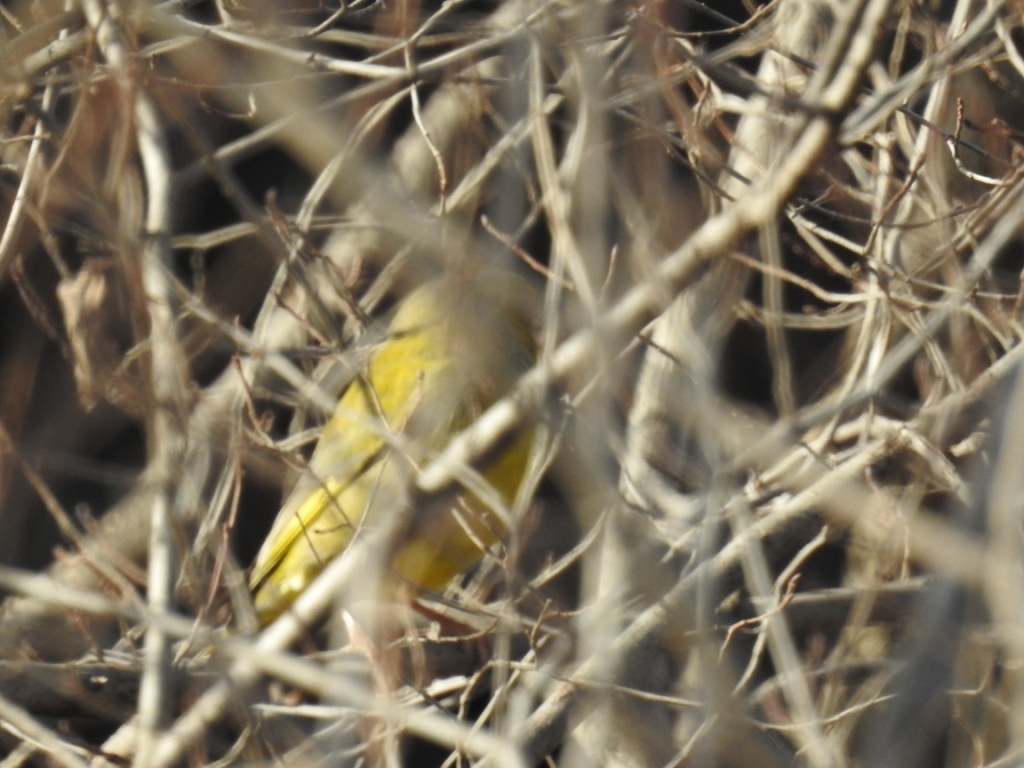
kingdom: Plantae
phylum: Tracheophyta
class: Liliopsida
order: Poales
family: Poaceae
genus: Chloris
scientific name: Chloris chloris
